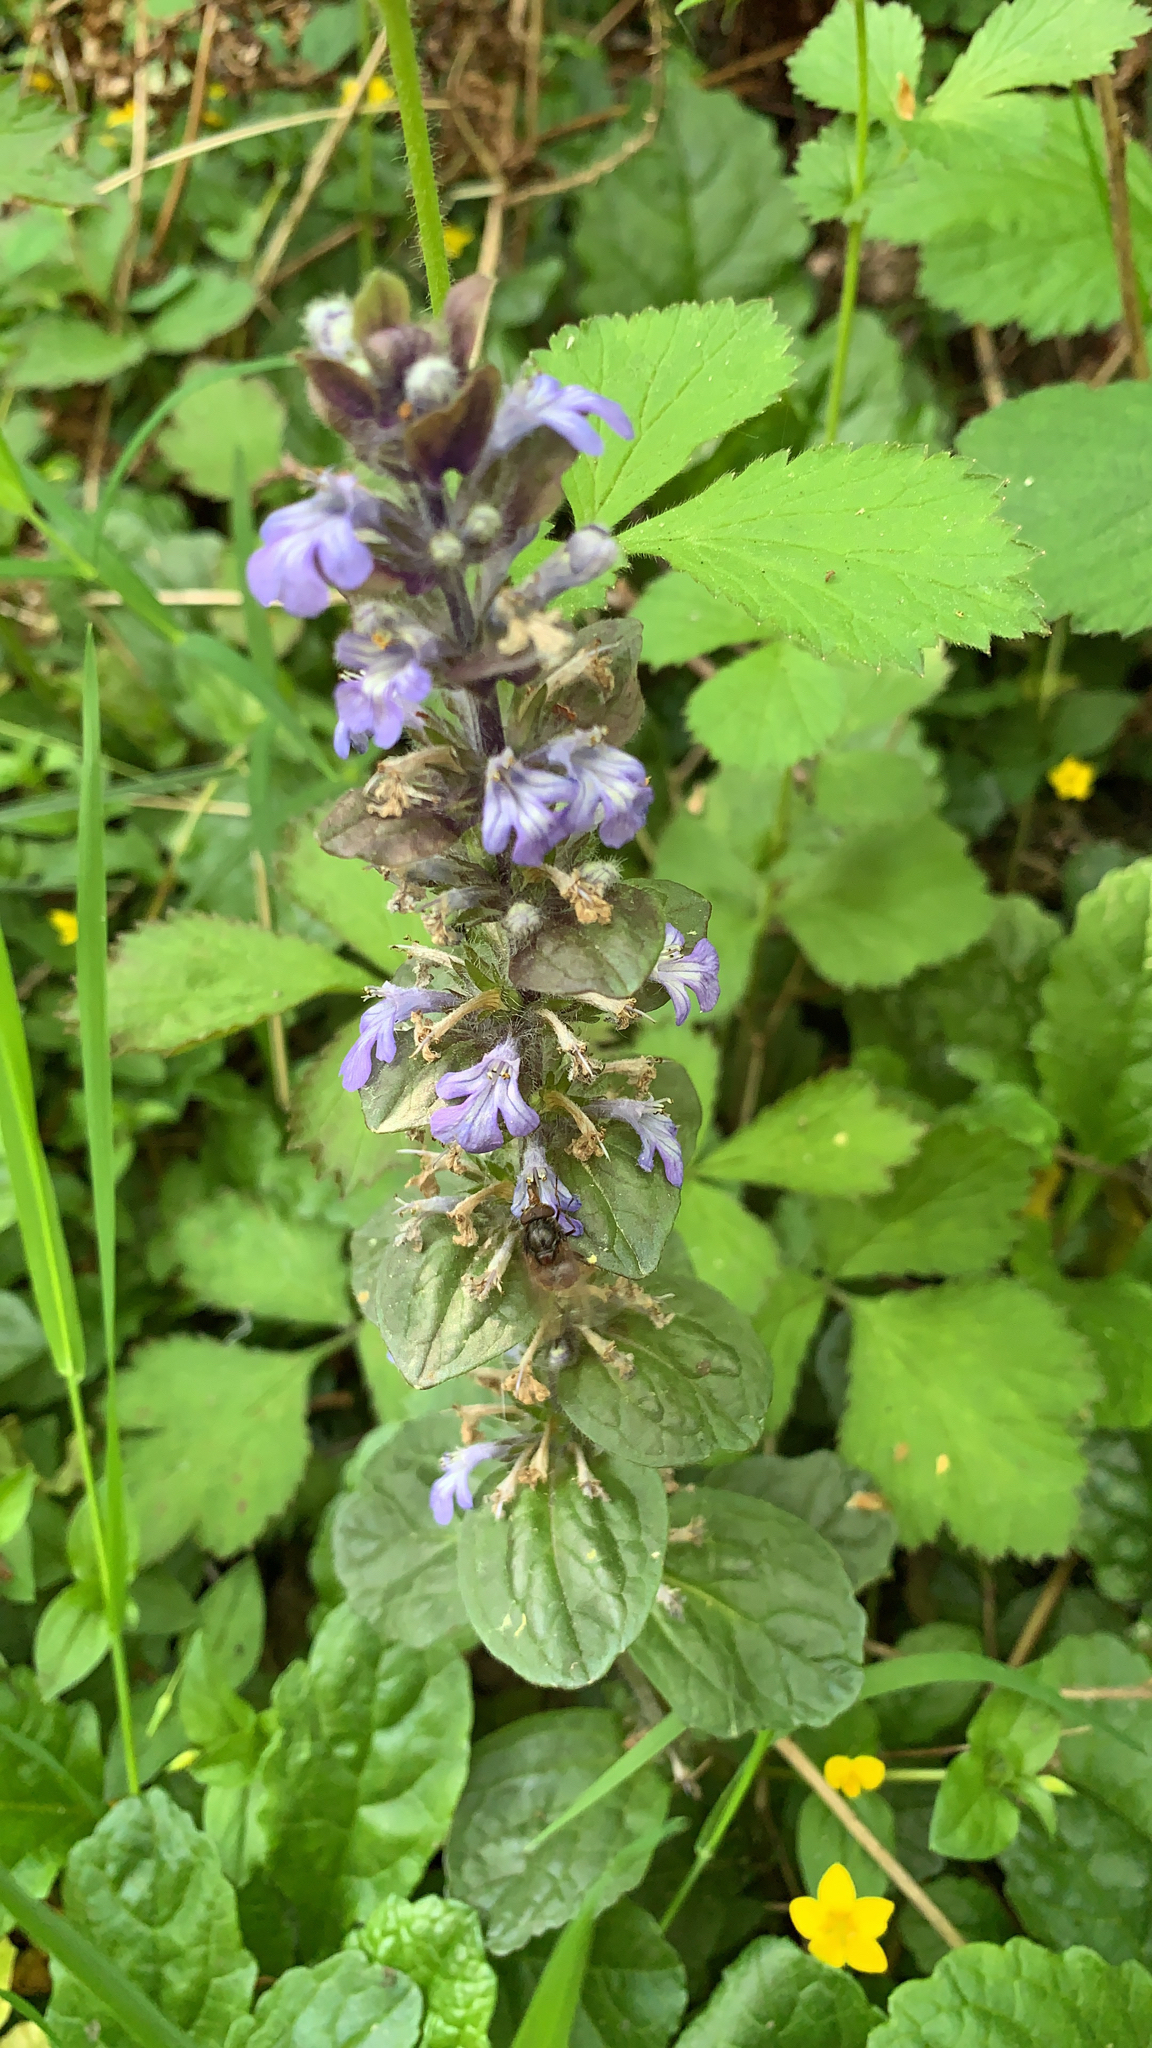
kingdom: Plantae
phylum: Tracheophyta
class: Magnoliopsida
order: Lamiales
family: Lamiaceae
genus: Ajuga
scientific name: Ajuga reptans
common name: Bugle
